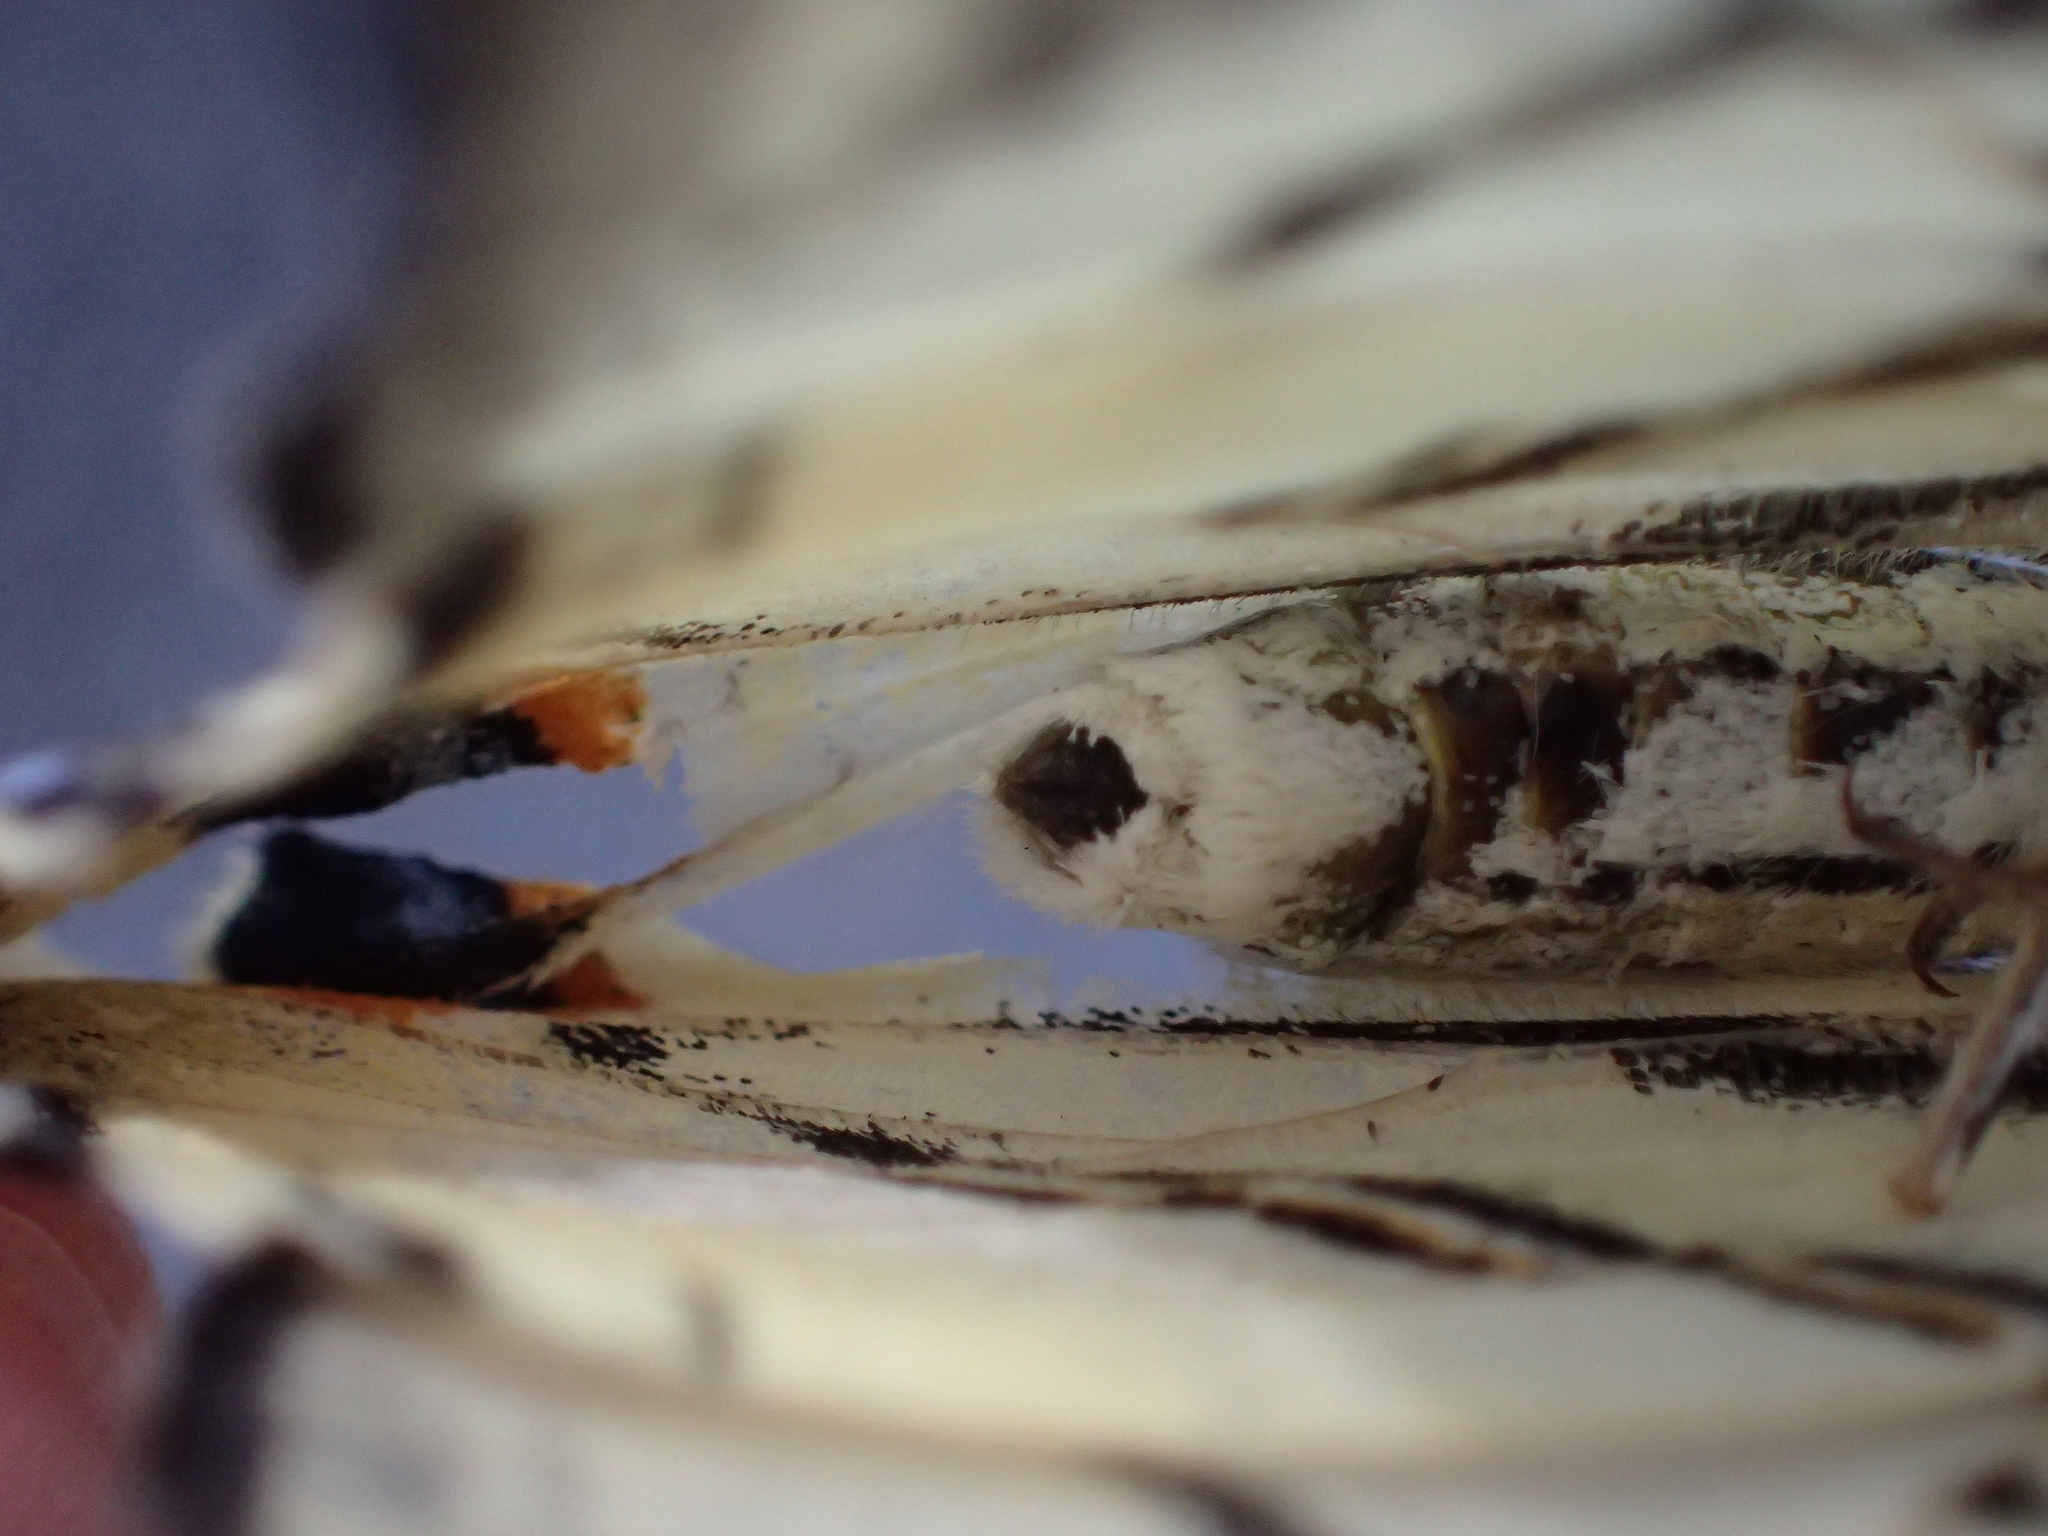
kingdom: Animalia
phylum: Arthropoda
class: Insecta
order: Lepidoptera
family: Papilionidae
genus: Iphiclides
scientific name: Iphiclides podalirius
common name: Scarce swallowtail
